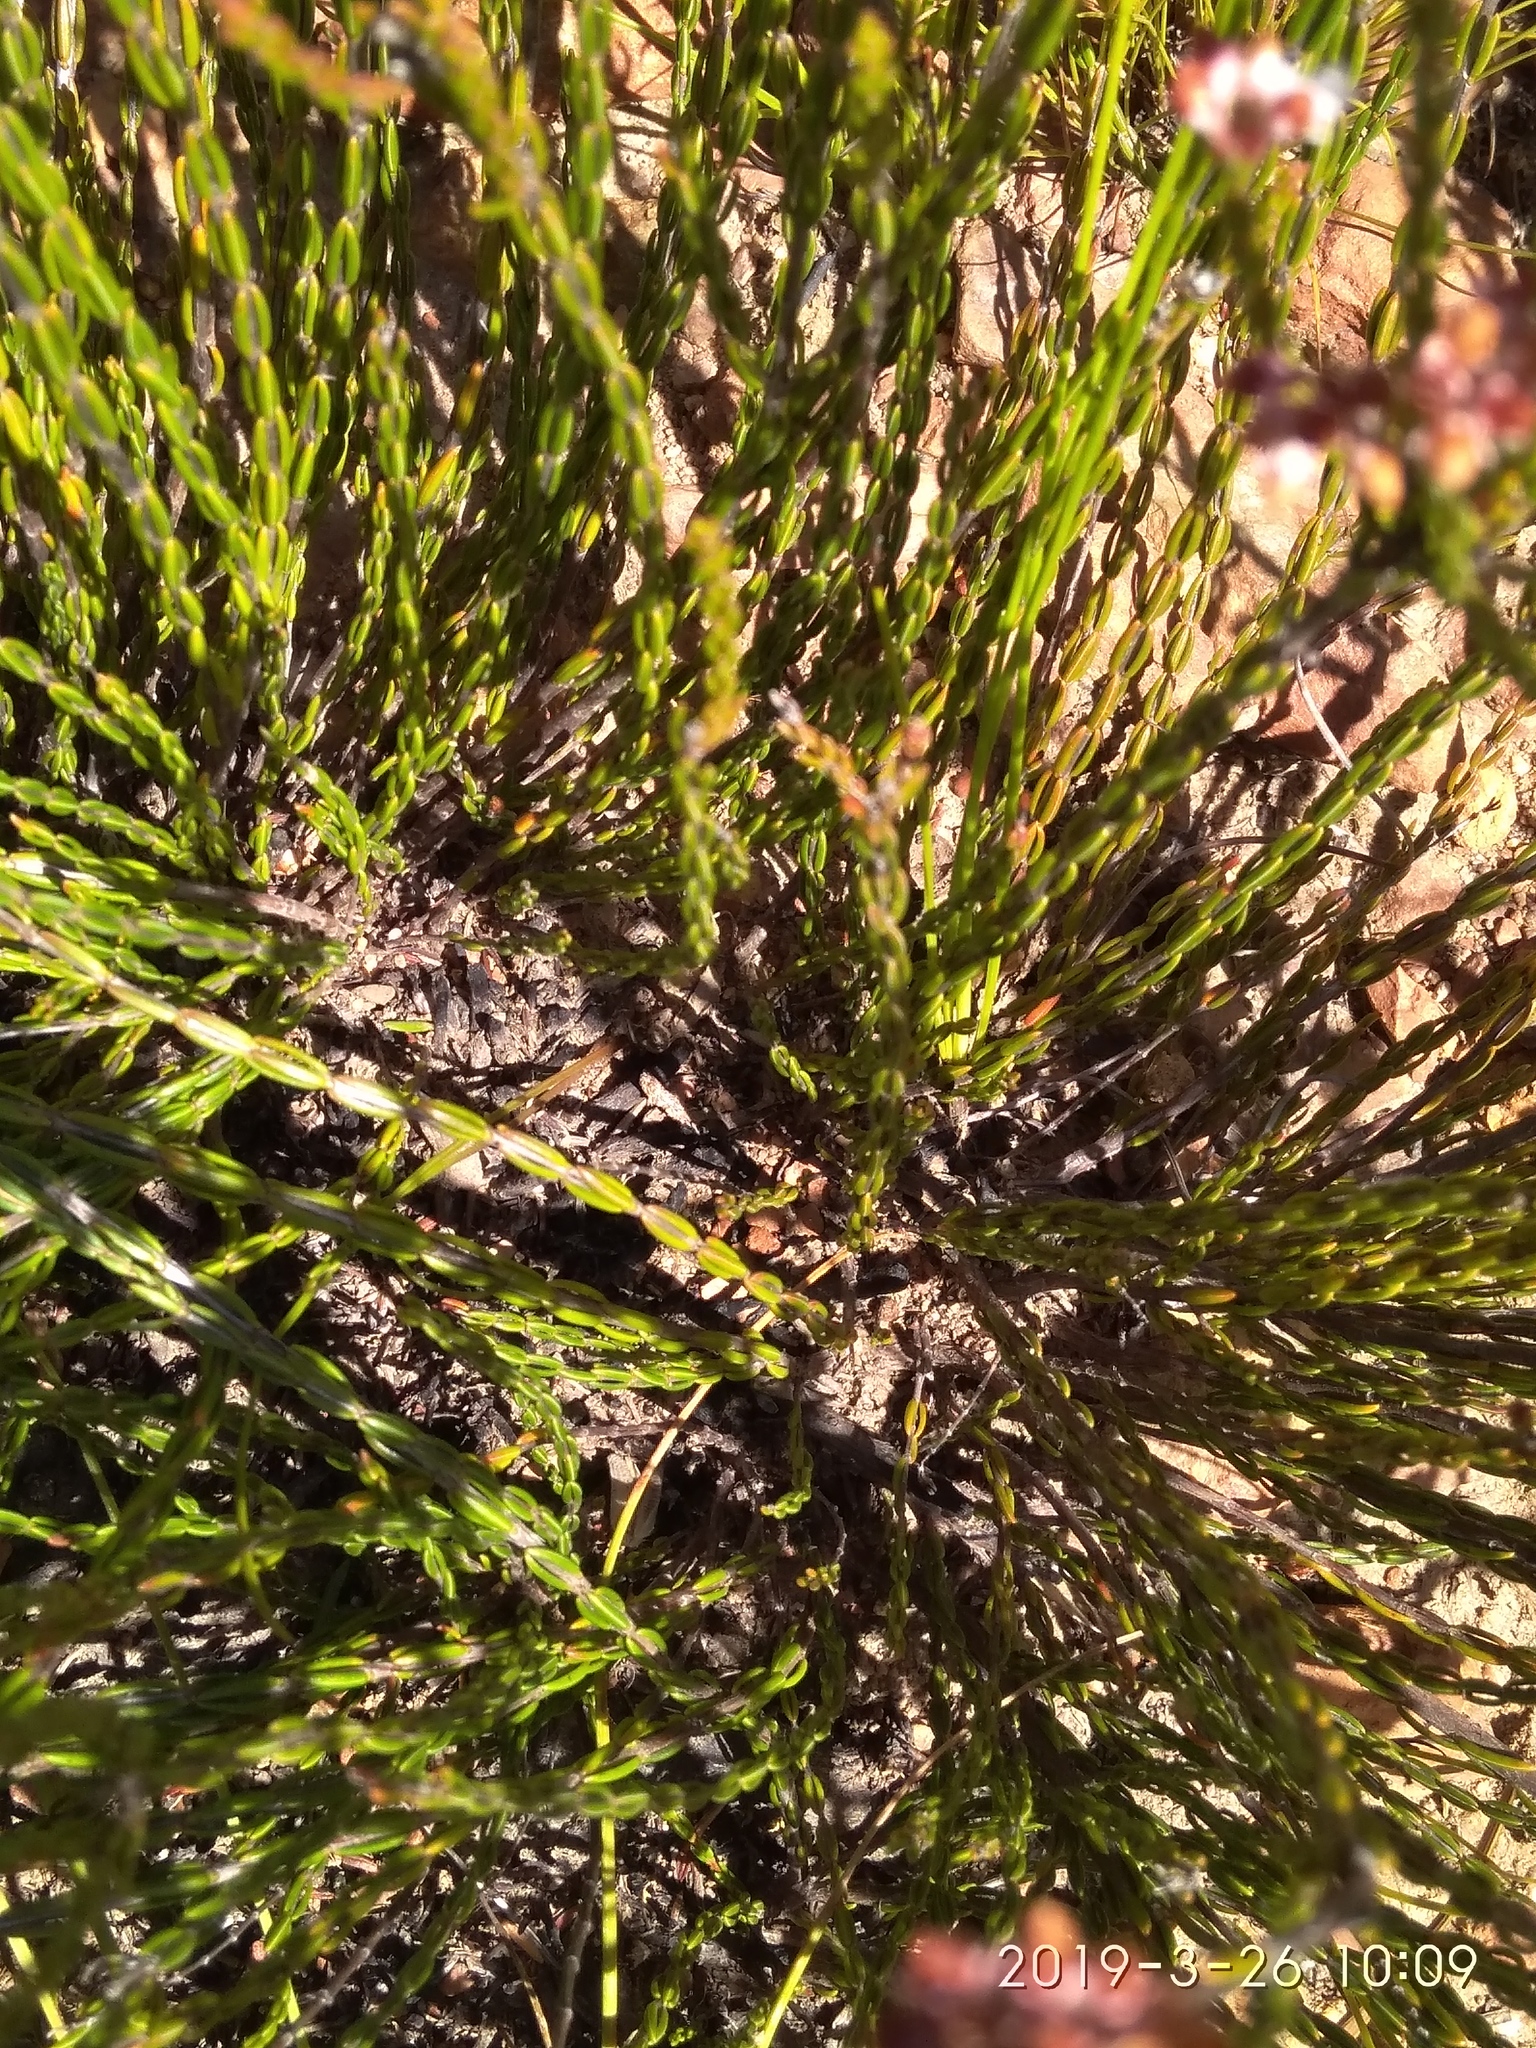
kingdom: Plantae
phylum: Tracheophyta
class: Magnoliopsida
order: Ericales
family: Ericaceae
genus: Erica
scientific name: Erica articularis
